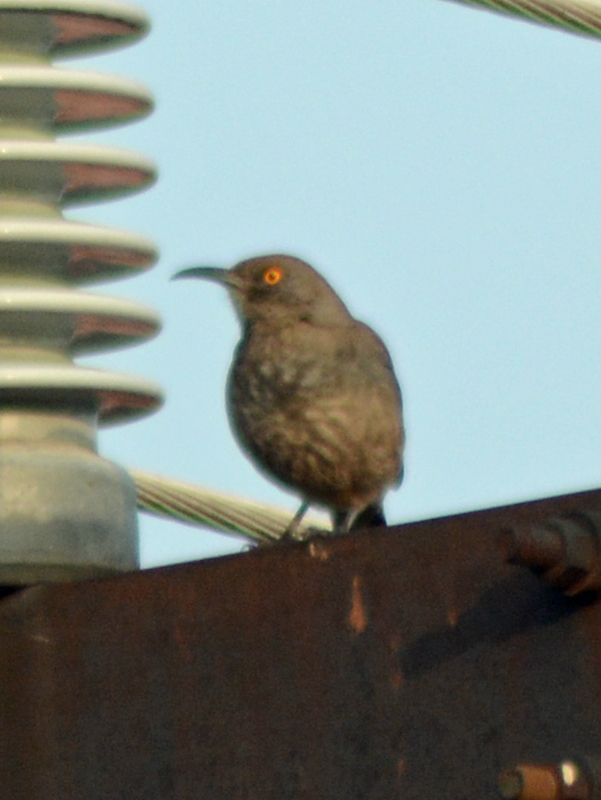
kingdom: Animalia
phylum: Chordata
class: Aves
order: Passeriformes
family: Mimidae
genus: Toxostoma
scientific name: Toxostoma curvirostre
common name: Curve-billed thrasher
